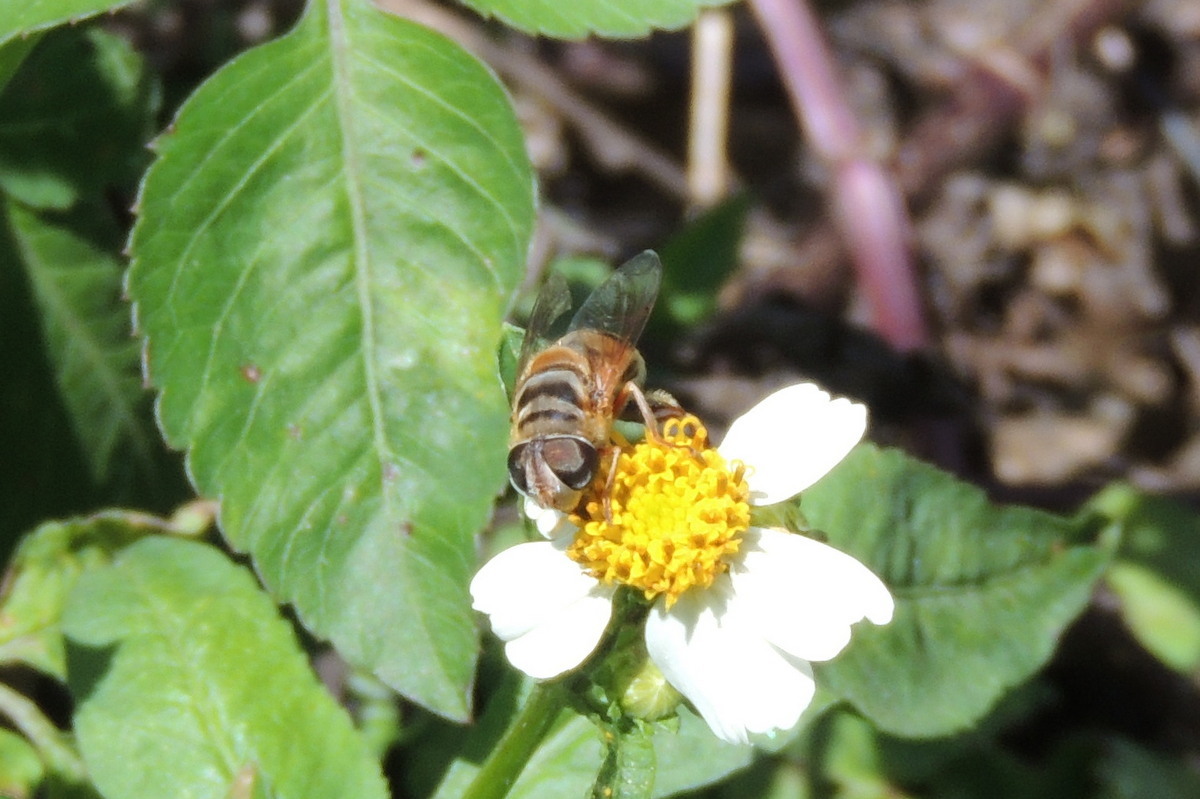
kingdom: Animalia
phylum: Arthropoda
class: Insecta
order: Diptera
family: Syrphidae
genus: Palpada
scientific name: Palpada vinetorum
